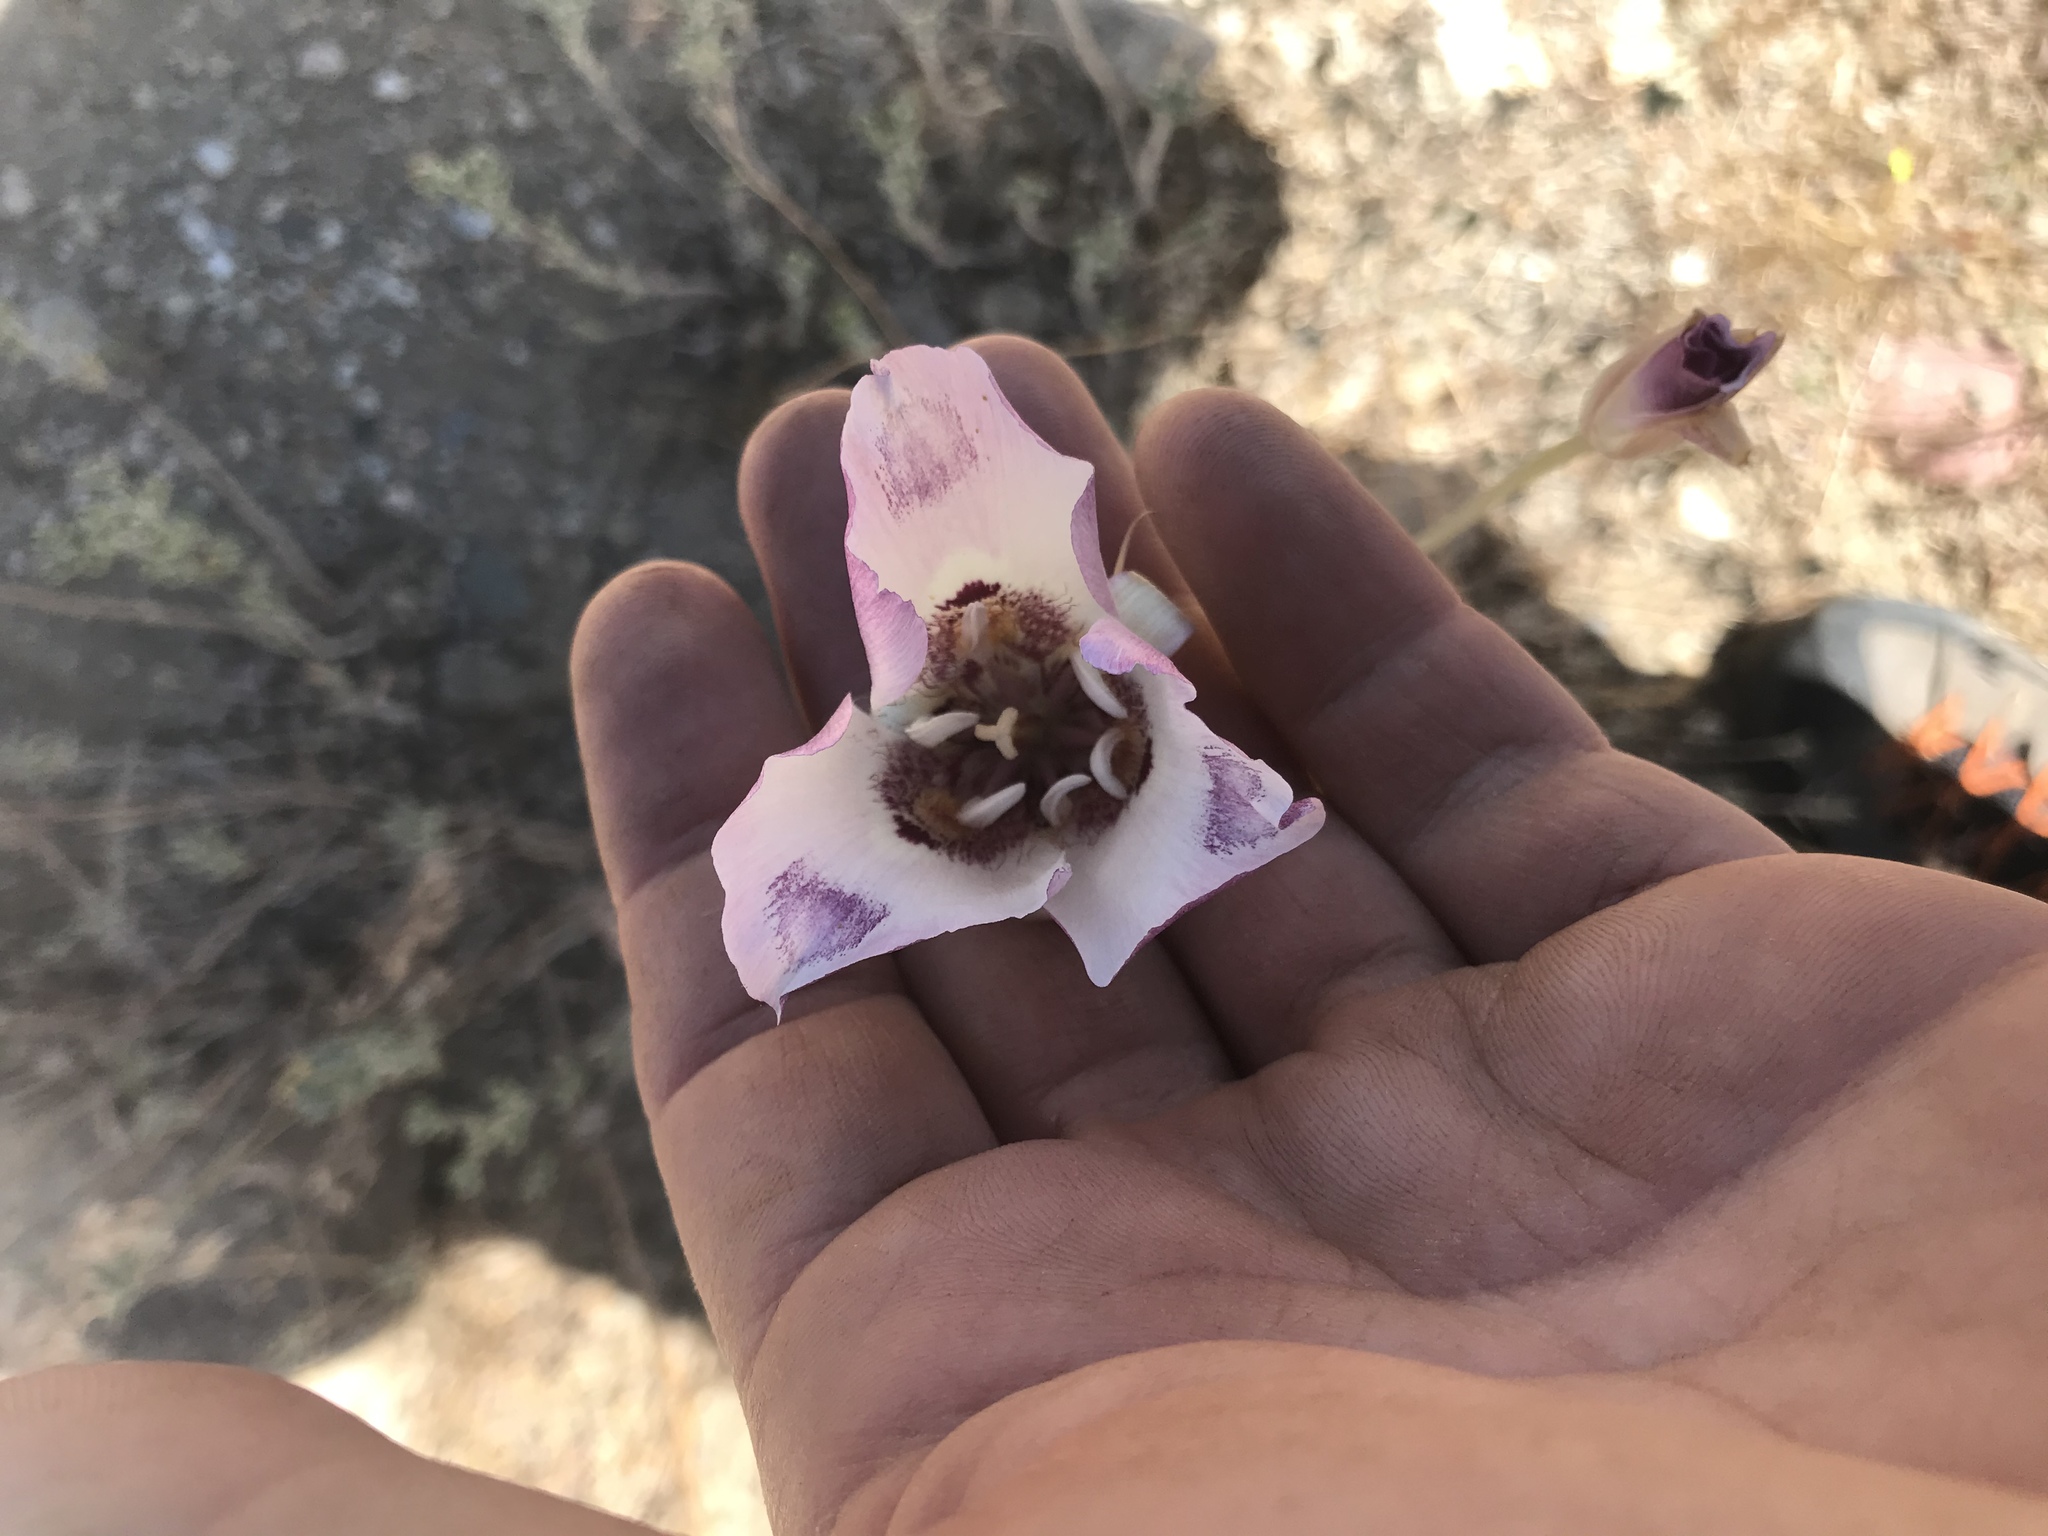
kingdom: Plantae
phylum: Tracheophyta
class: Liliopsida
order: Liliales
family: Liliaceae
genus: Calochortus
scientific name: Calochortus venustus
